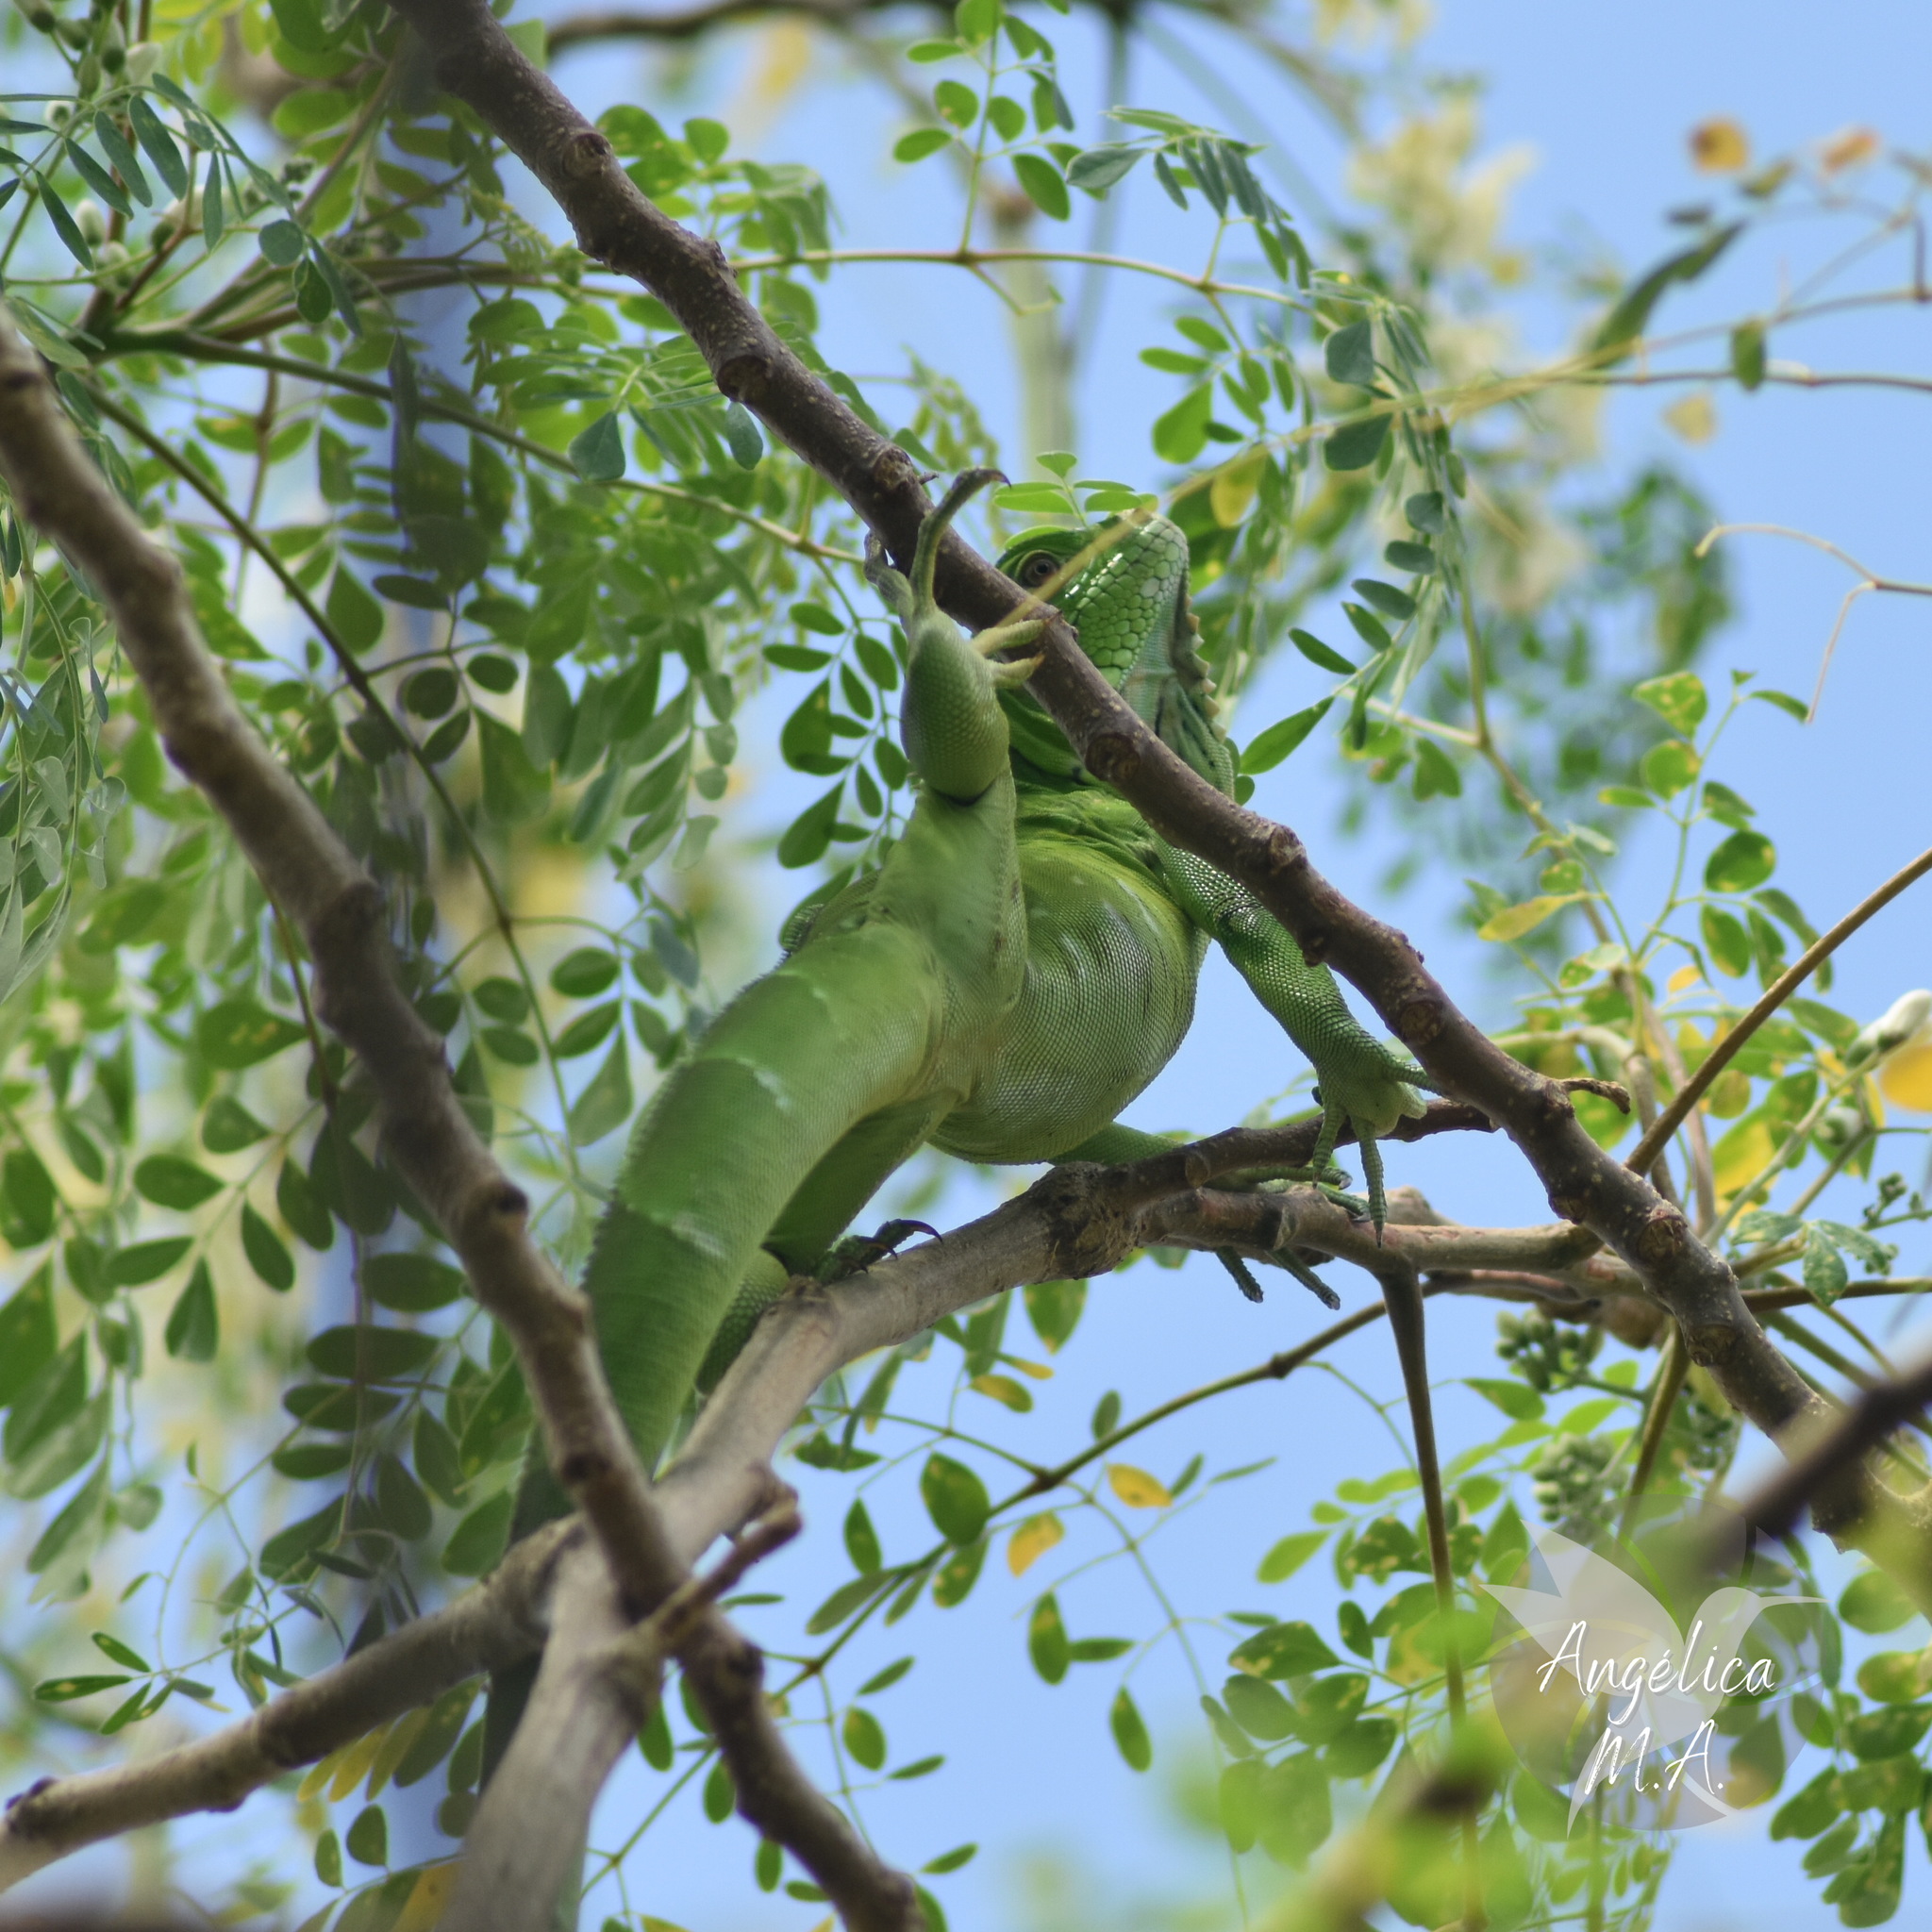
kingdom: Animalia
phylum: Chordata
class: Squamata
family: Iguanidae
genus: Iguana
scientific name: Iguana iguana
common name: Green iguana
